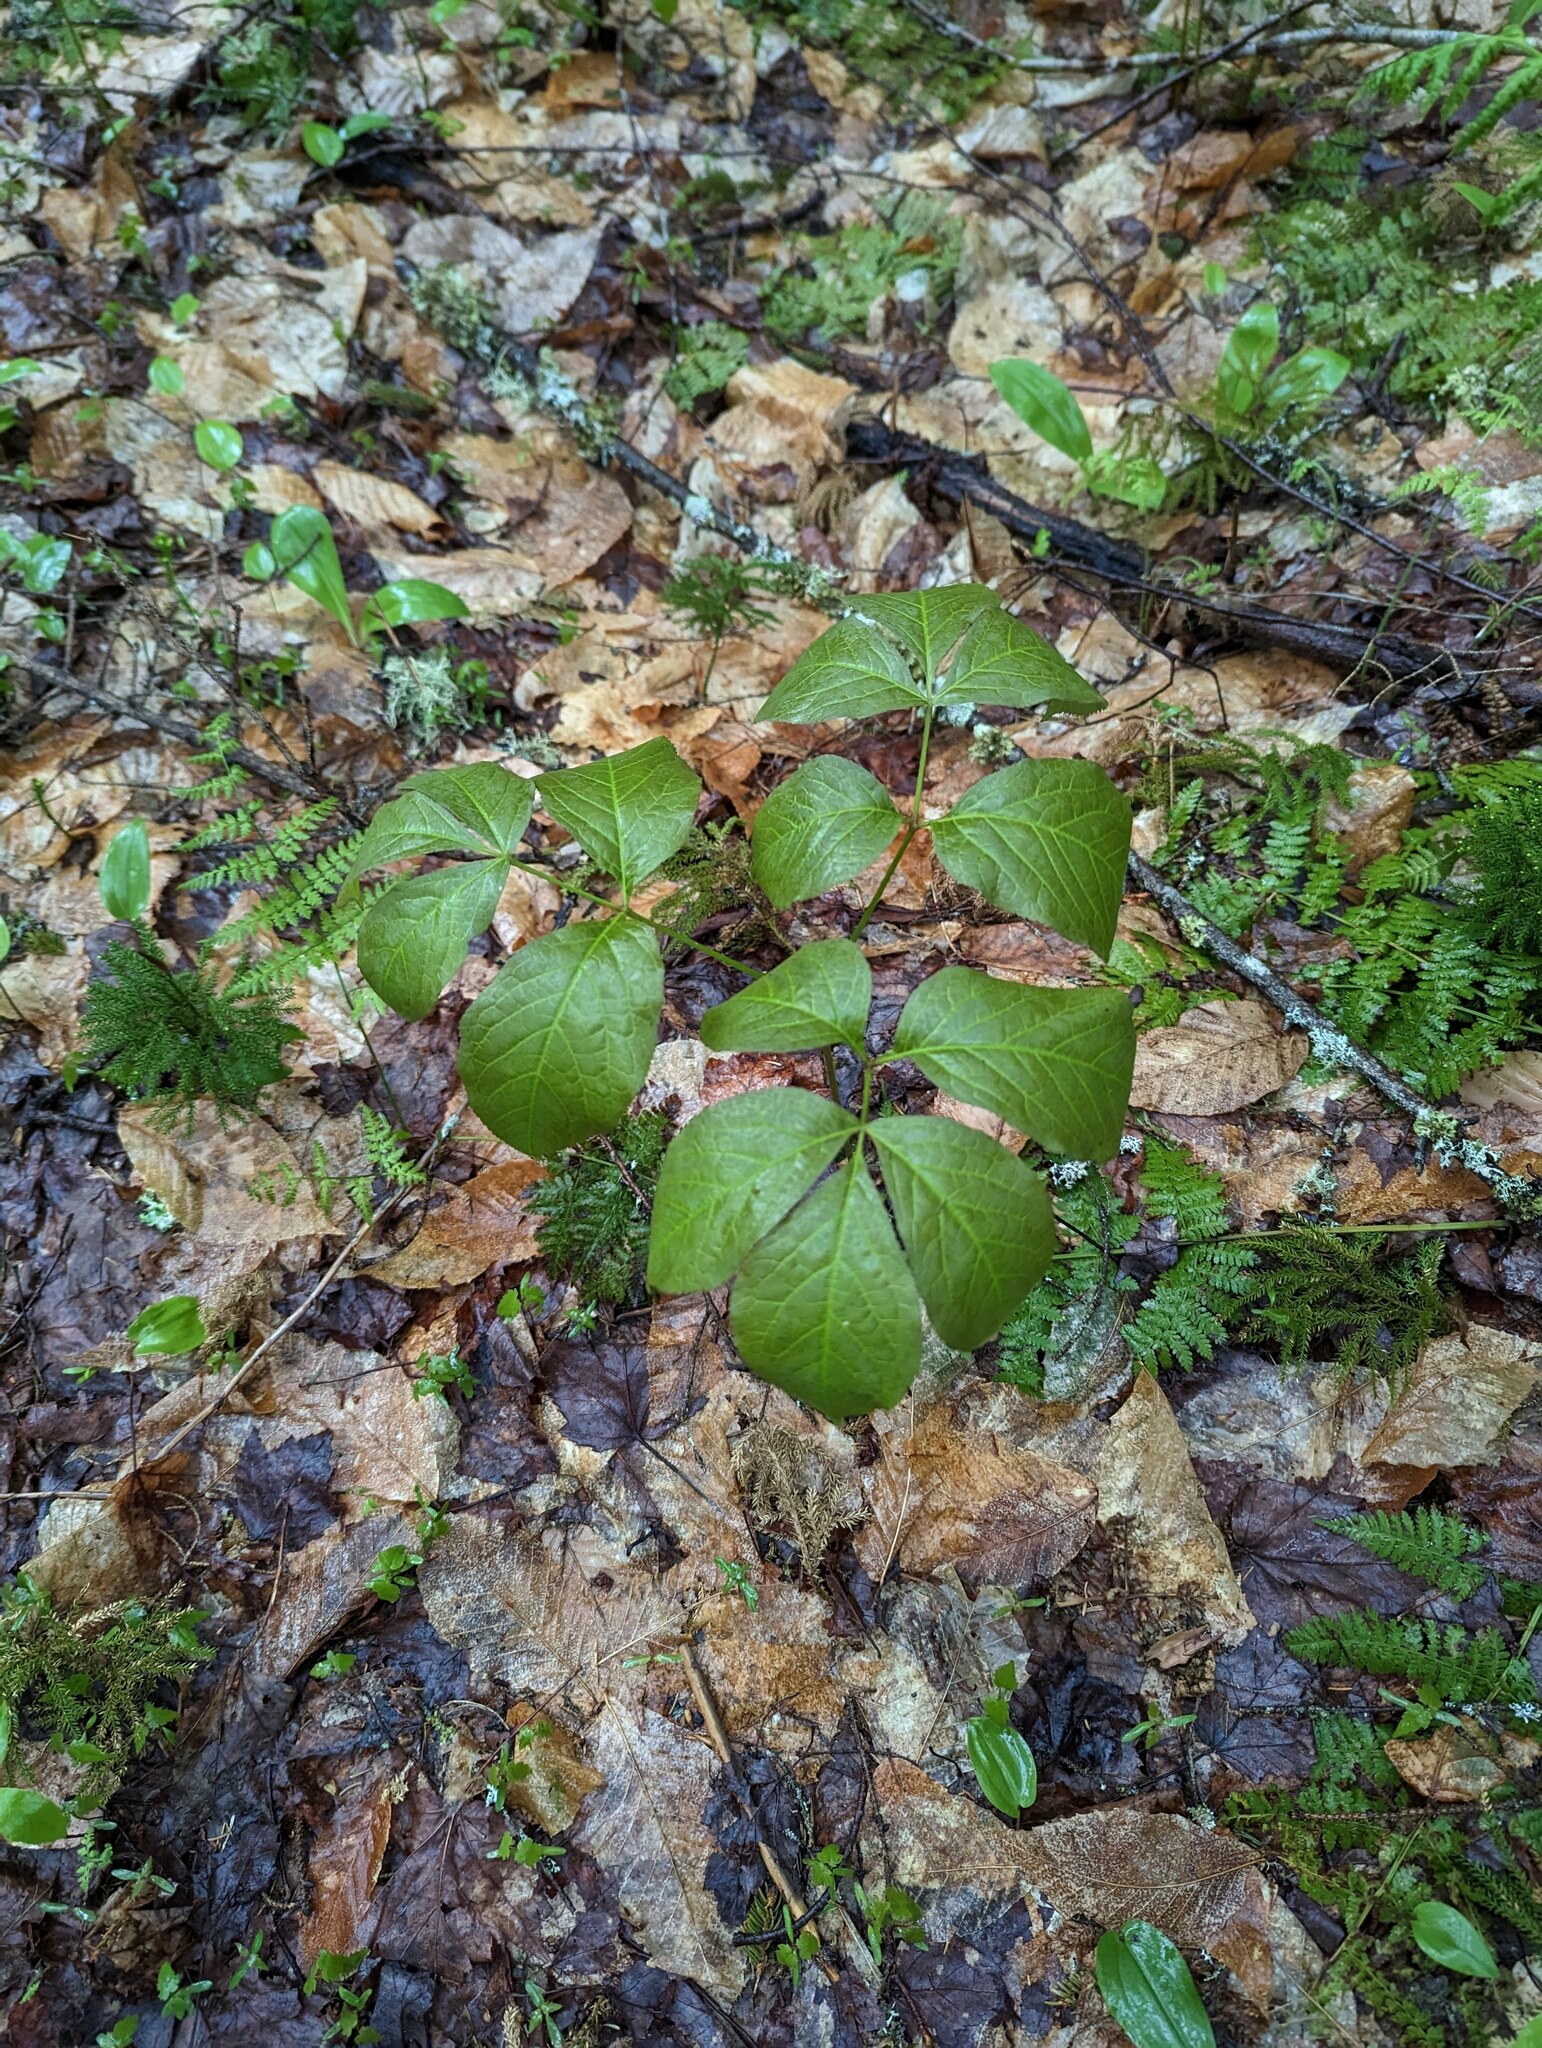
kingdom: Plantae
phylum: Tracheophyta
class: Magnoliopsida
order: Apiales
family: Araliaceae
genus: Aralia
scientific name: Aralia nudicaulis
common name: Wild sarsaparilla
